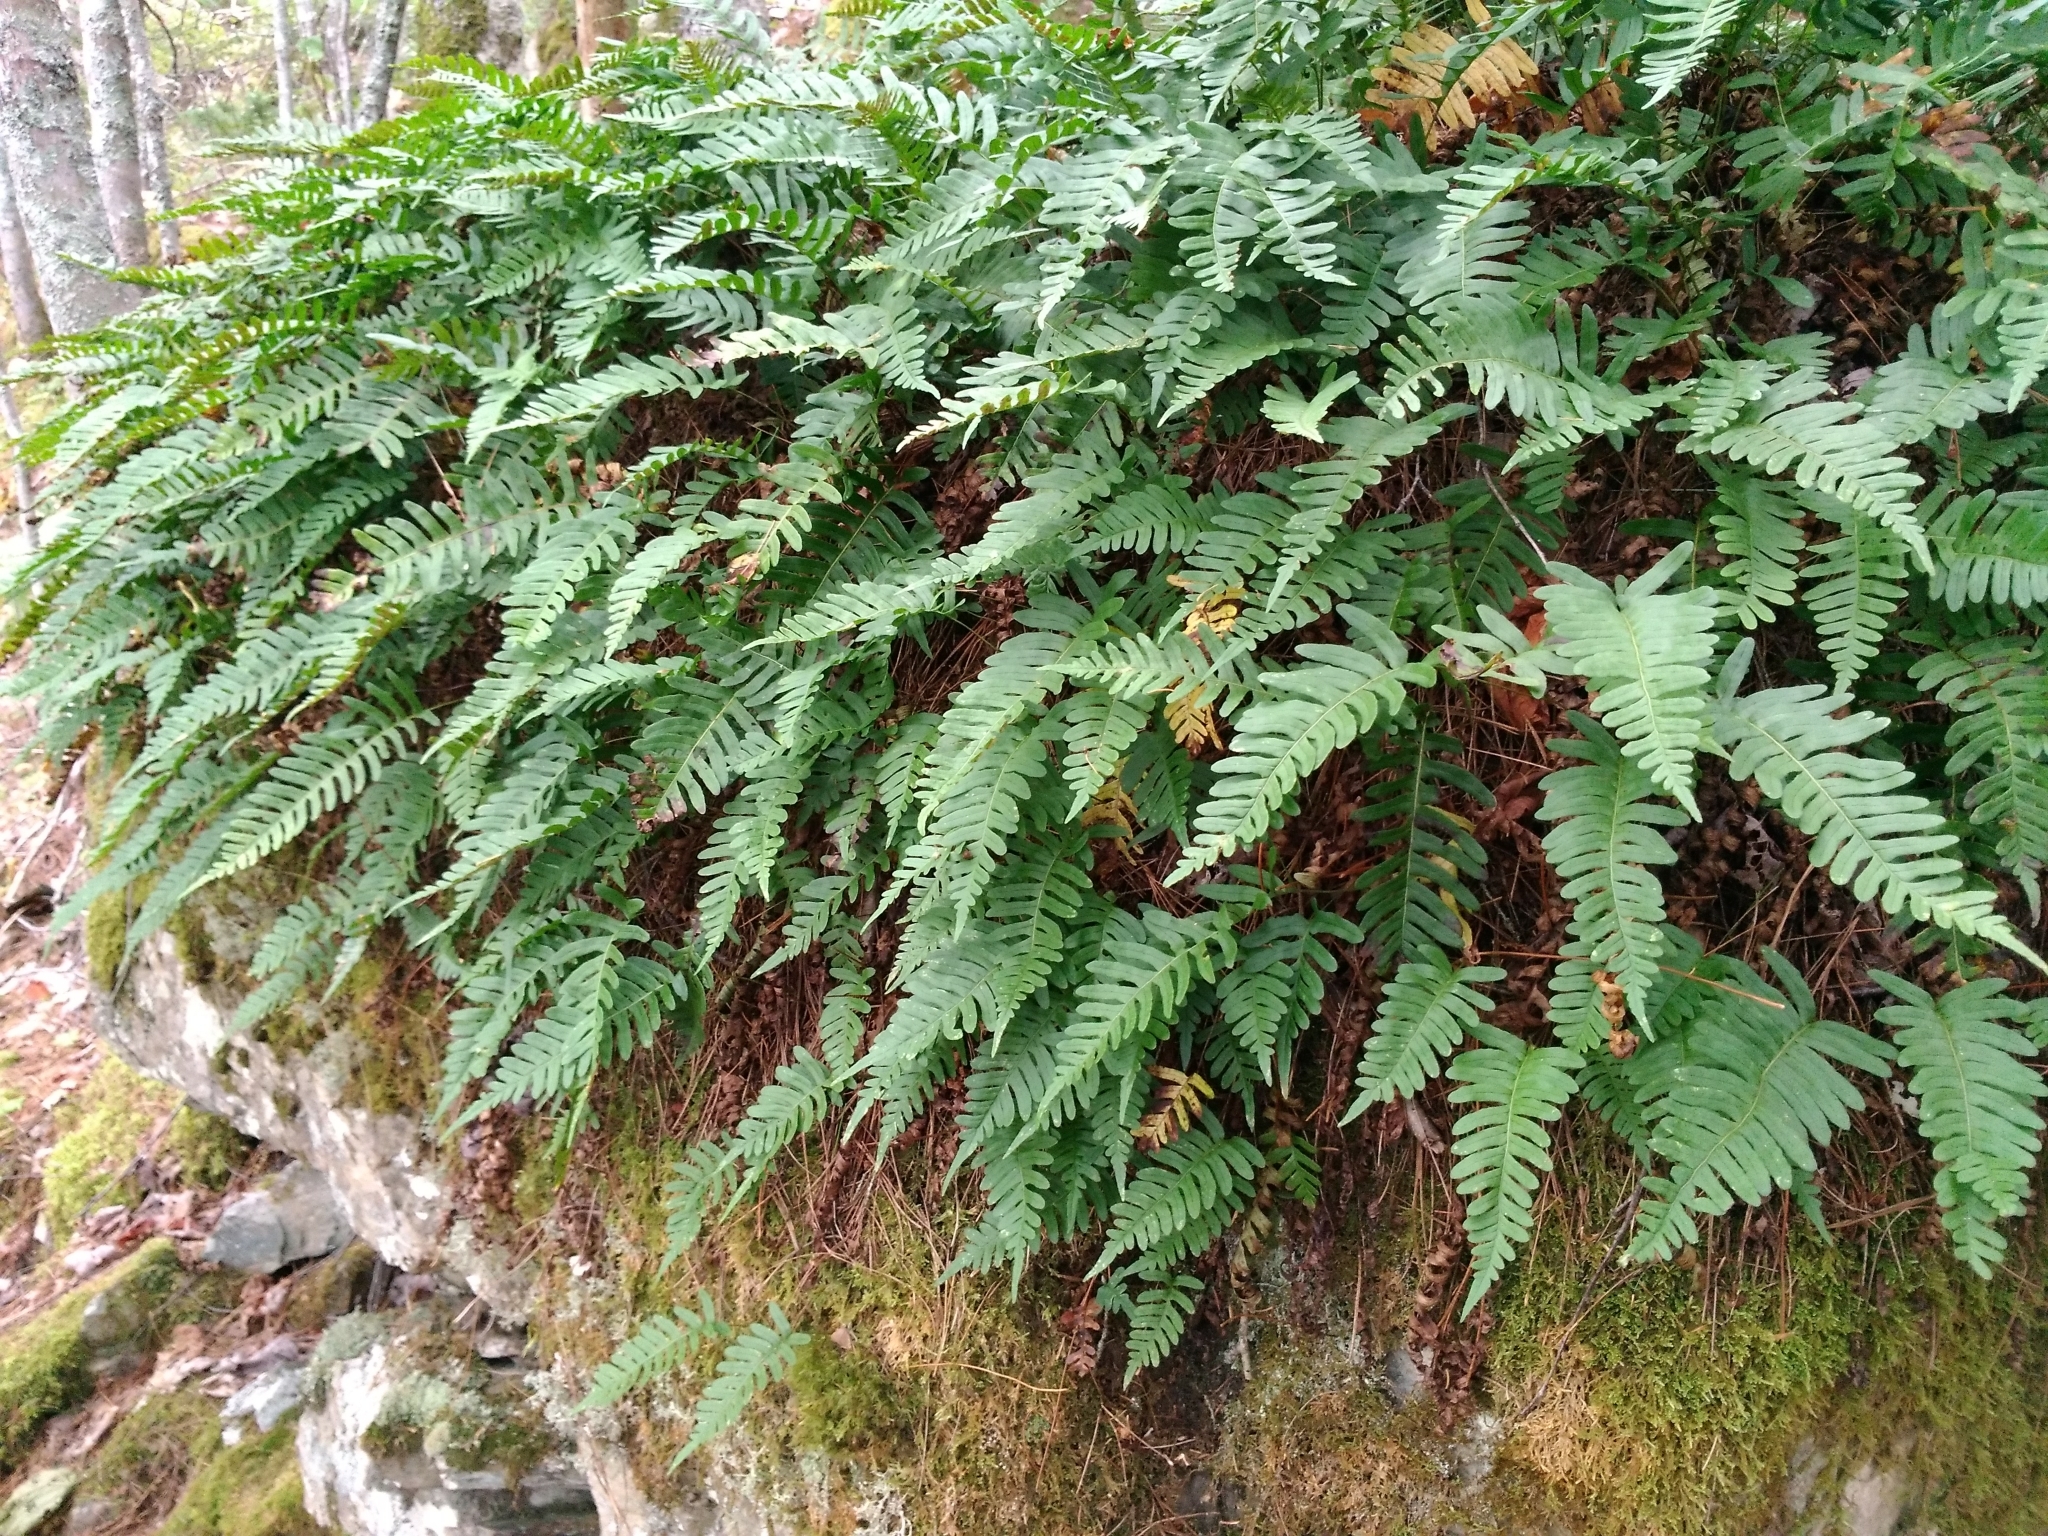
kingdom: Plantae
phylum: Tracheophyta
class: Polypodiopsida
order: Polypodiales
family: Polypodiaceae
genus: Polypodium
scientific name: Polypodium virginianum
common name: American wall fern
